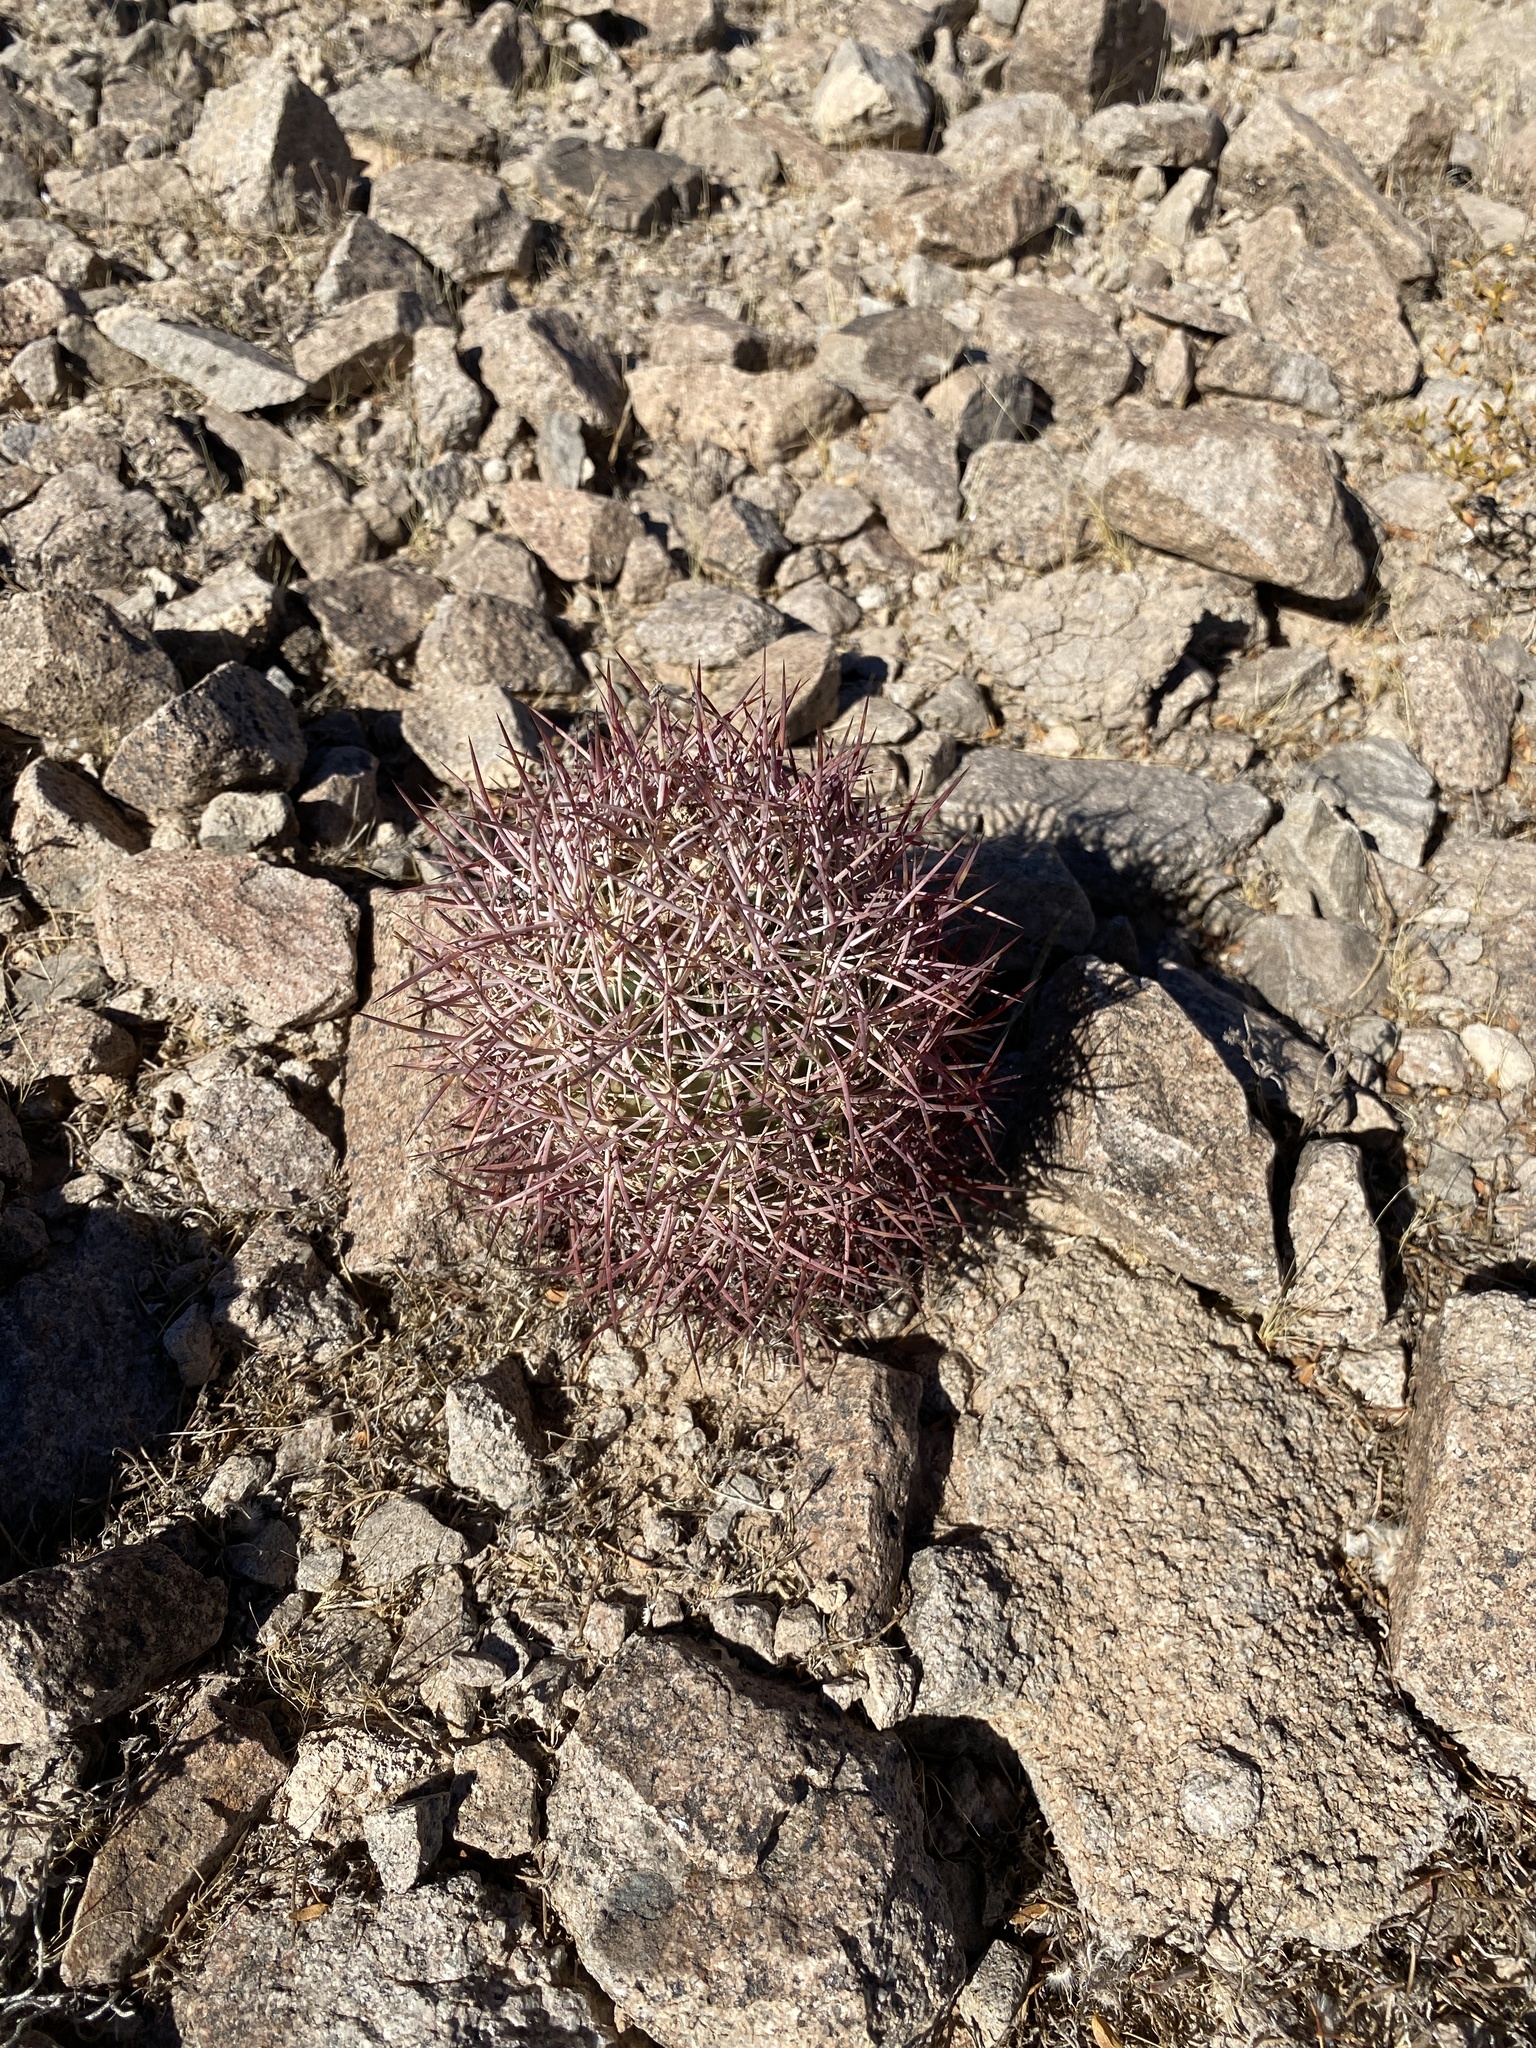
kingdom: Plantae
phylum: Tracheophyta
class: Magnoliopsida
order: Caryophyllales
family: Cactaceae
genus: Sclerocactus
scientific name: Sclerocactus johnsonii
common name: Eight-spine fishhook cactus
